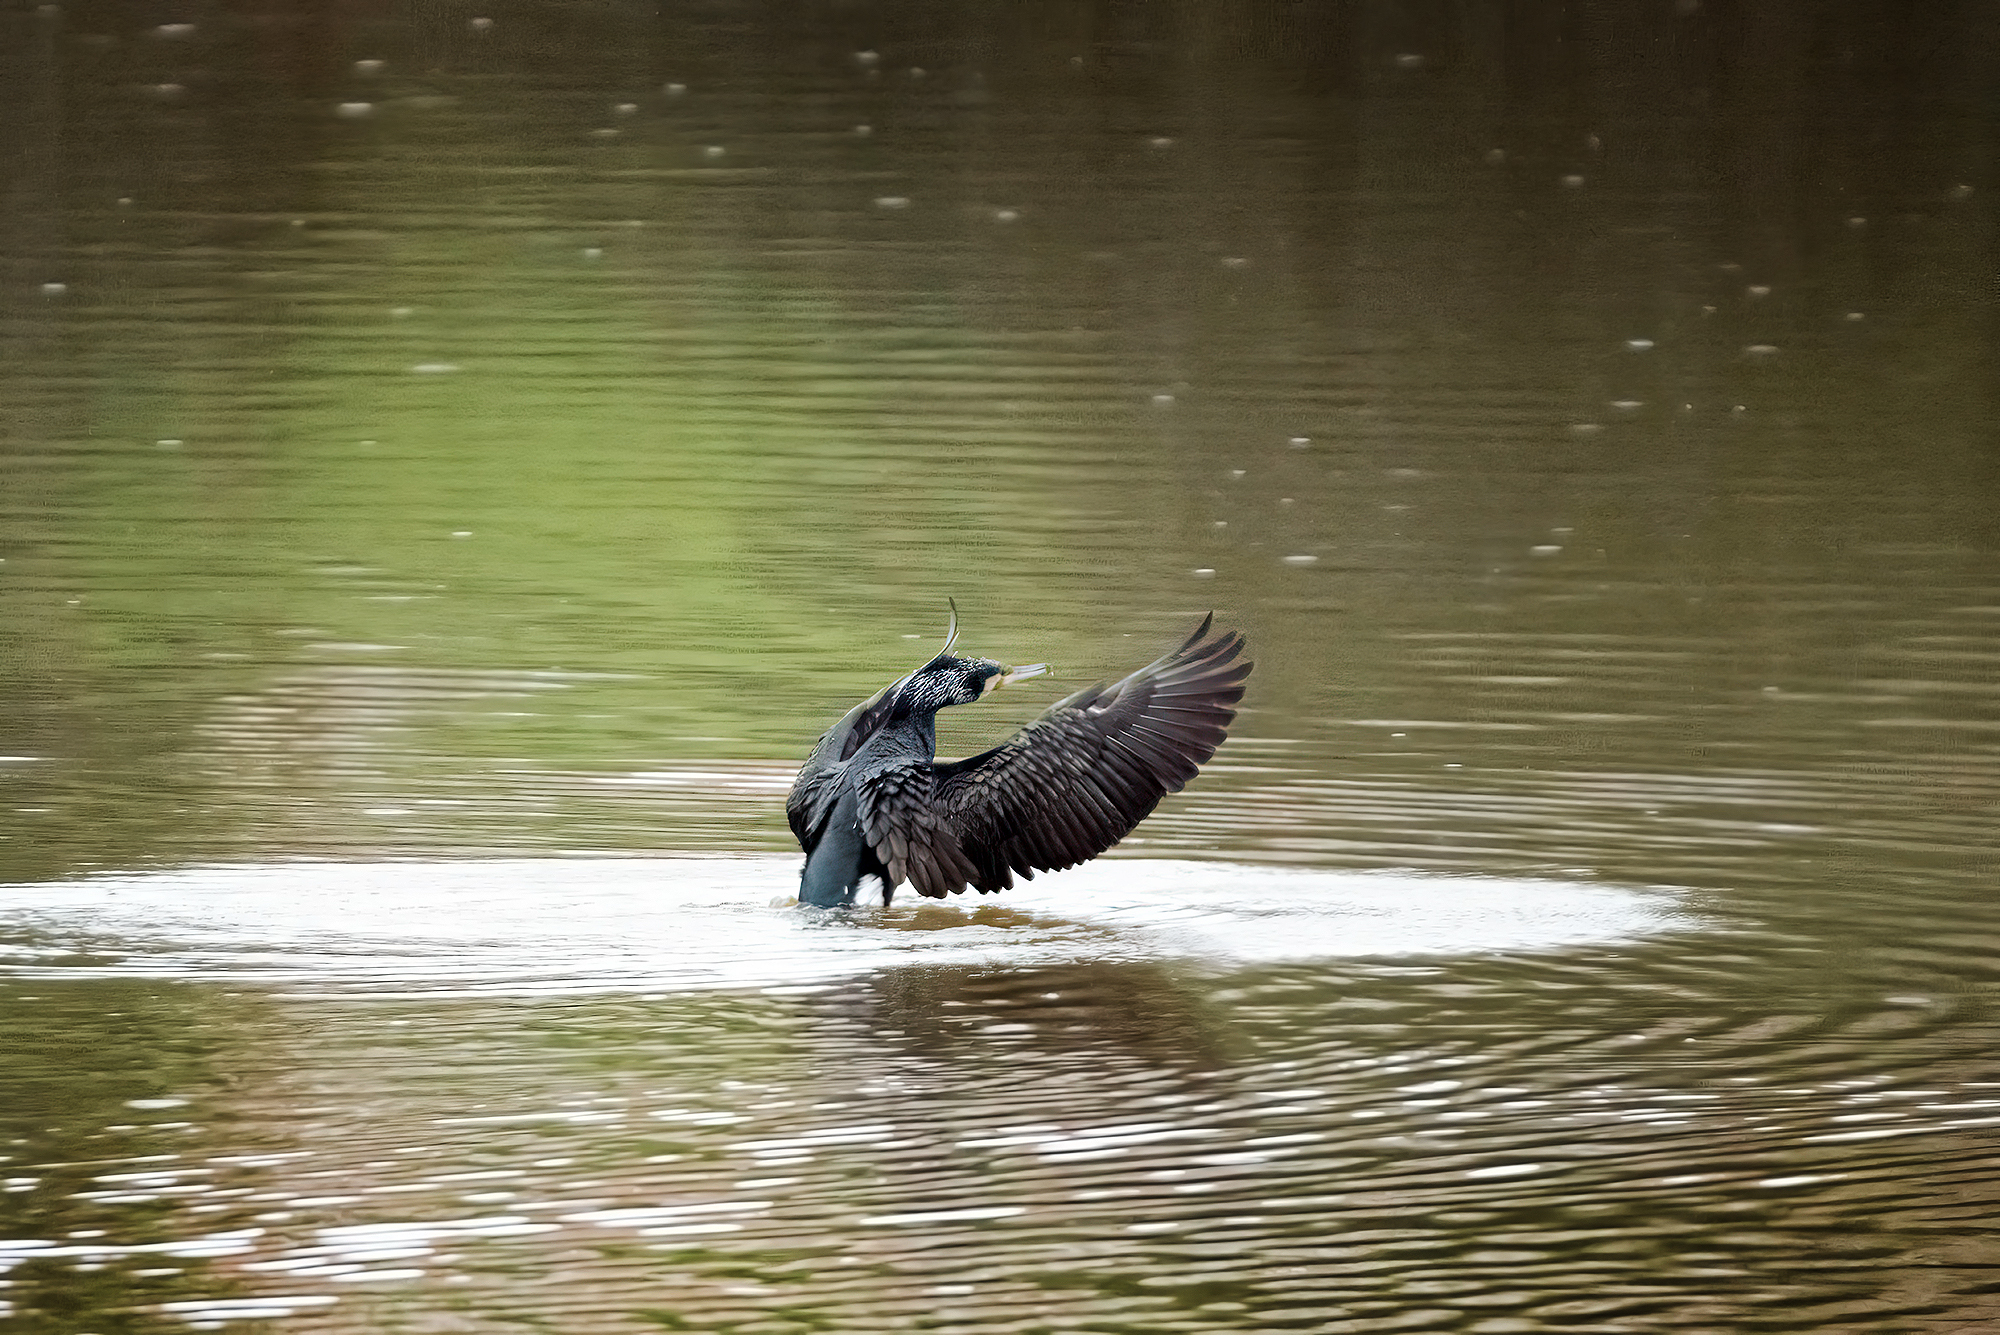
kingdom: Animalia
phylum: Chordata
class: Aves
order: Suliformes
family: Phalacrocoracidae
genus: Phalacrocorax
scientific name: Phalacrocorax carbo
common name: Great cormorant
